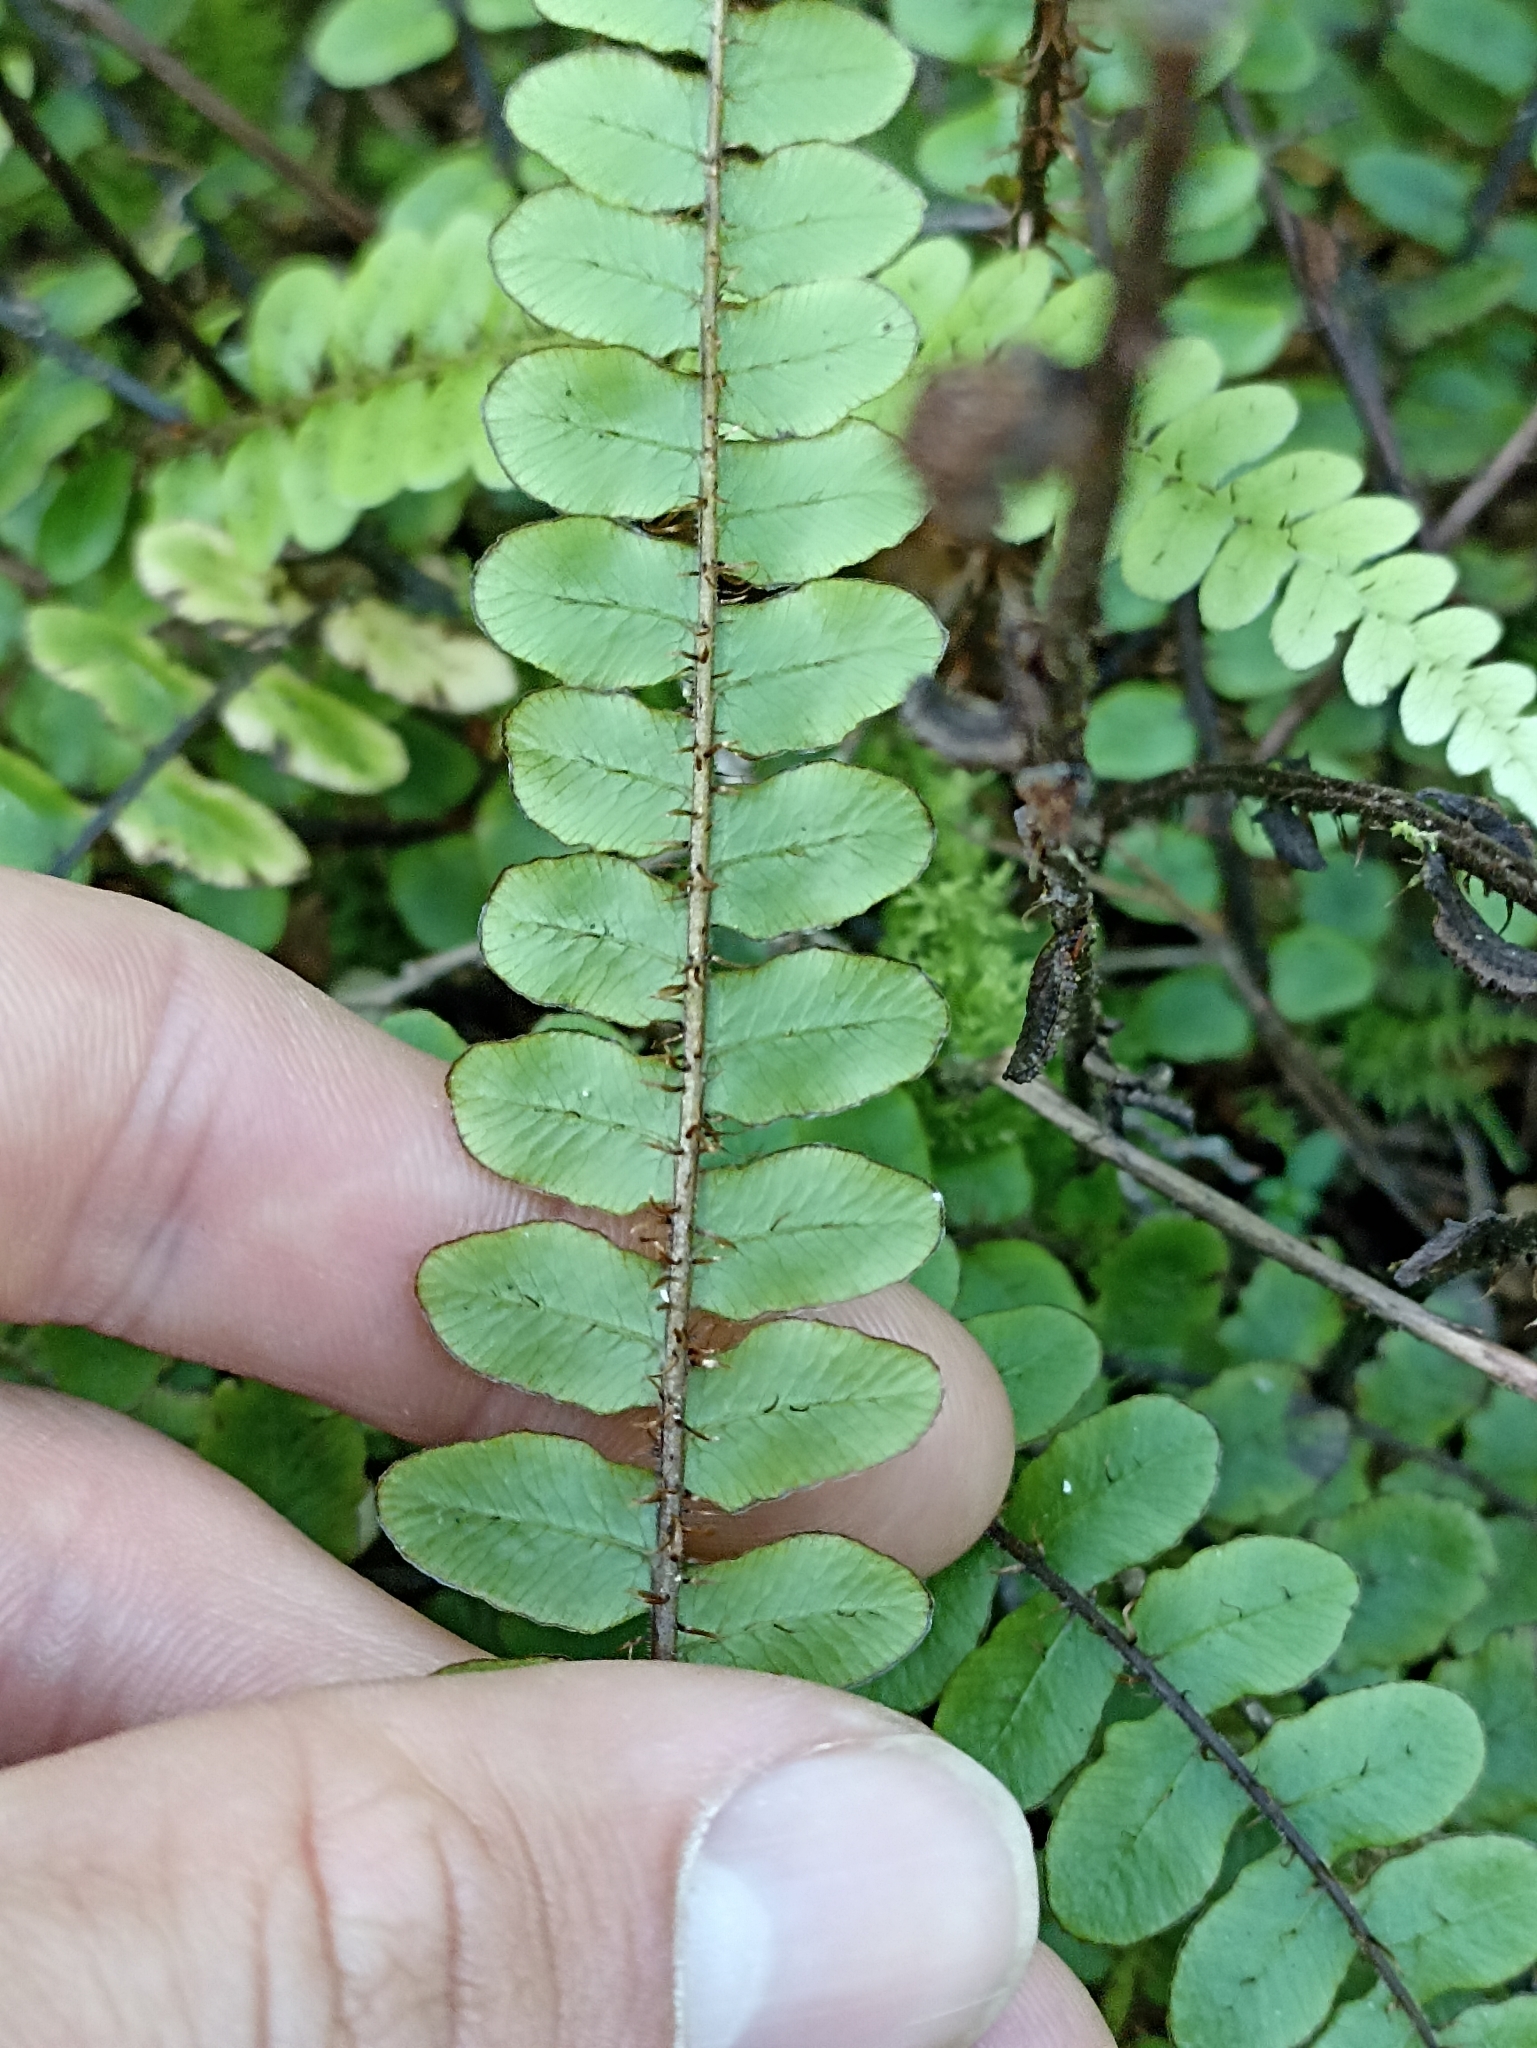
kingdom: Plantae
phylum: Tracheophyta
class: Polypodiopsida
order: Polypodiales
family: Blechnaceae
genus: Cranfillia
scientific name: Cranfillia fluviatilis
